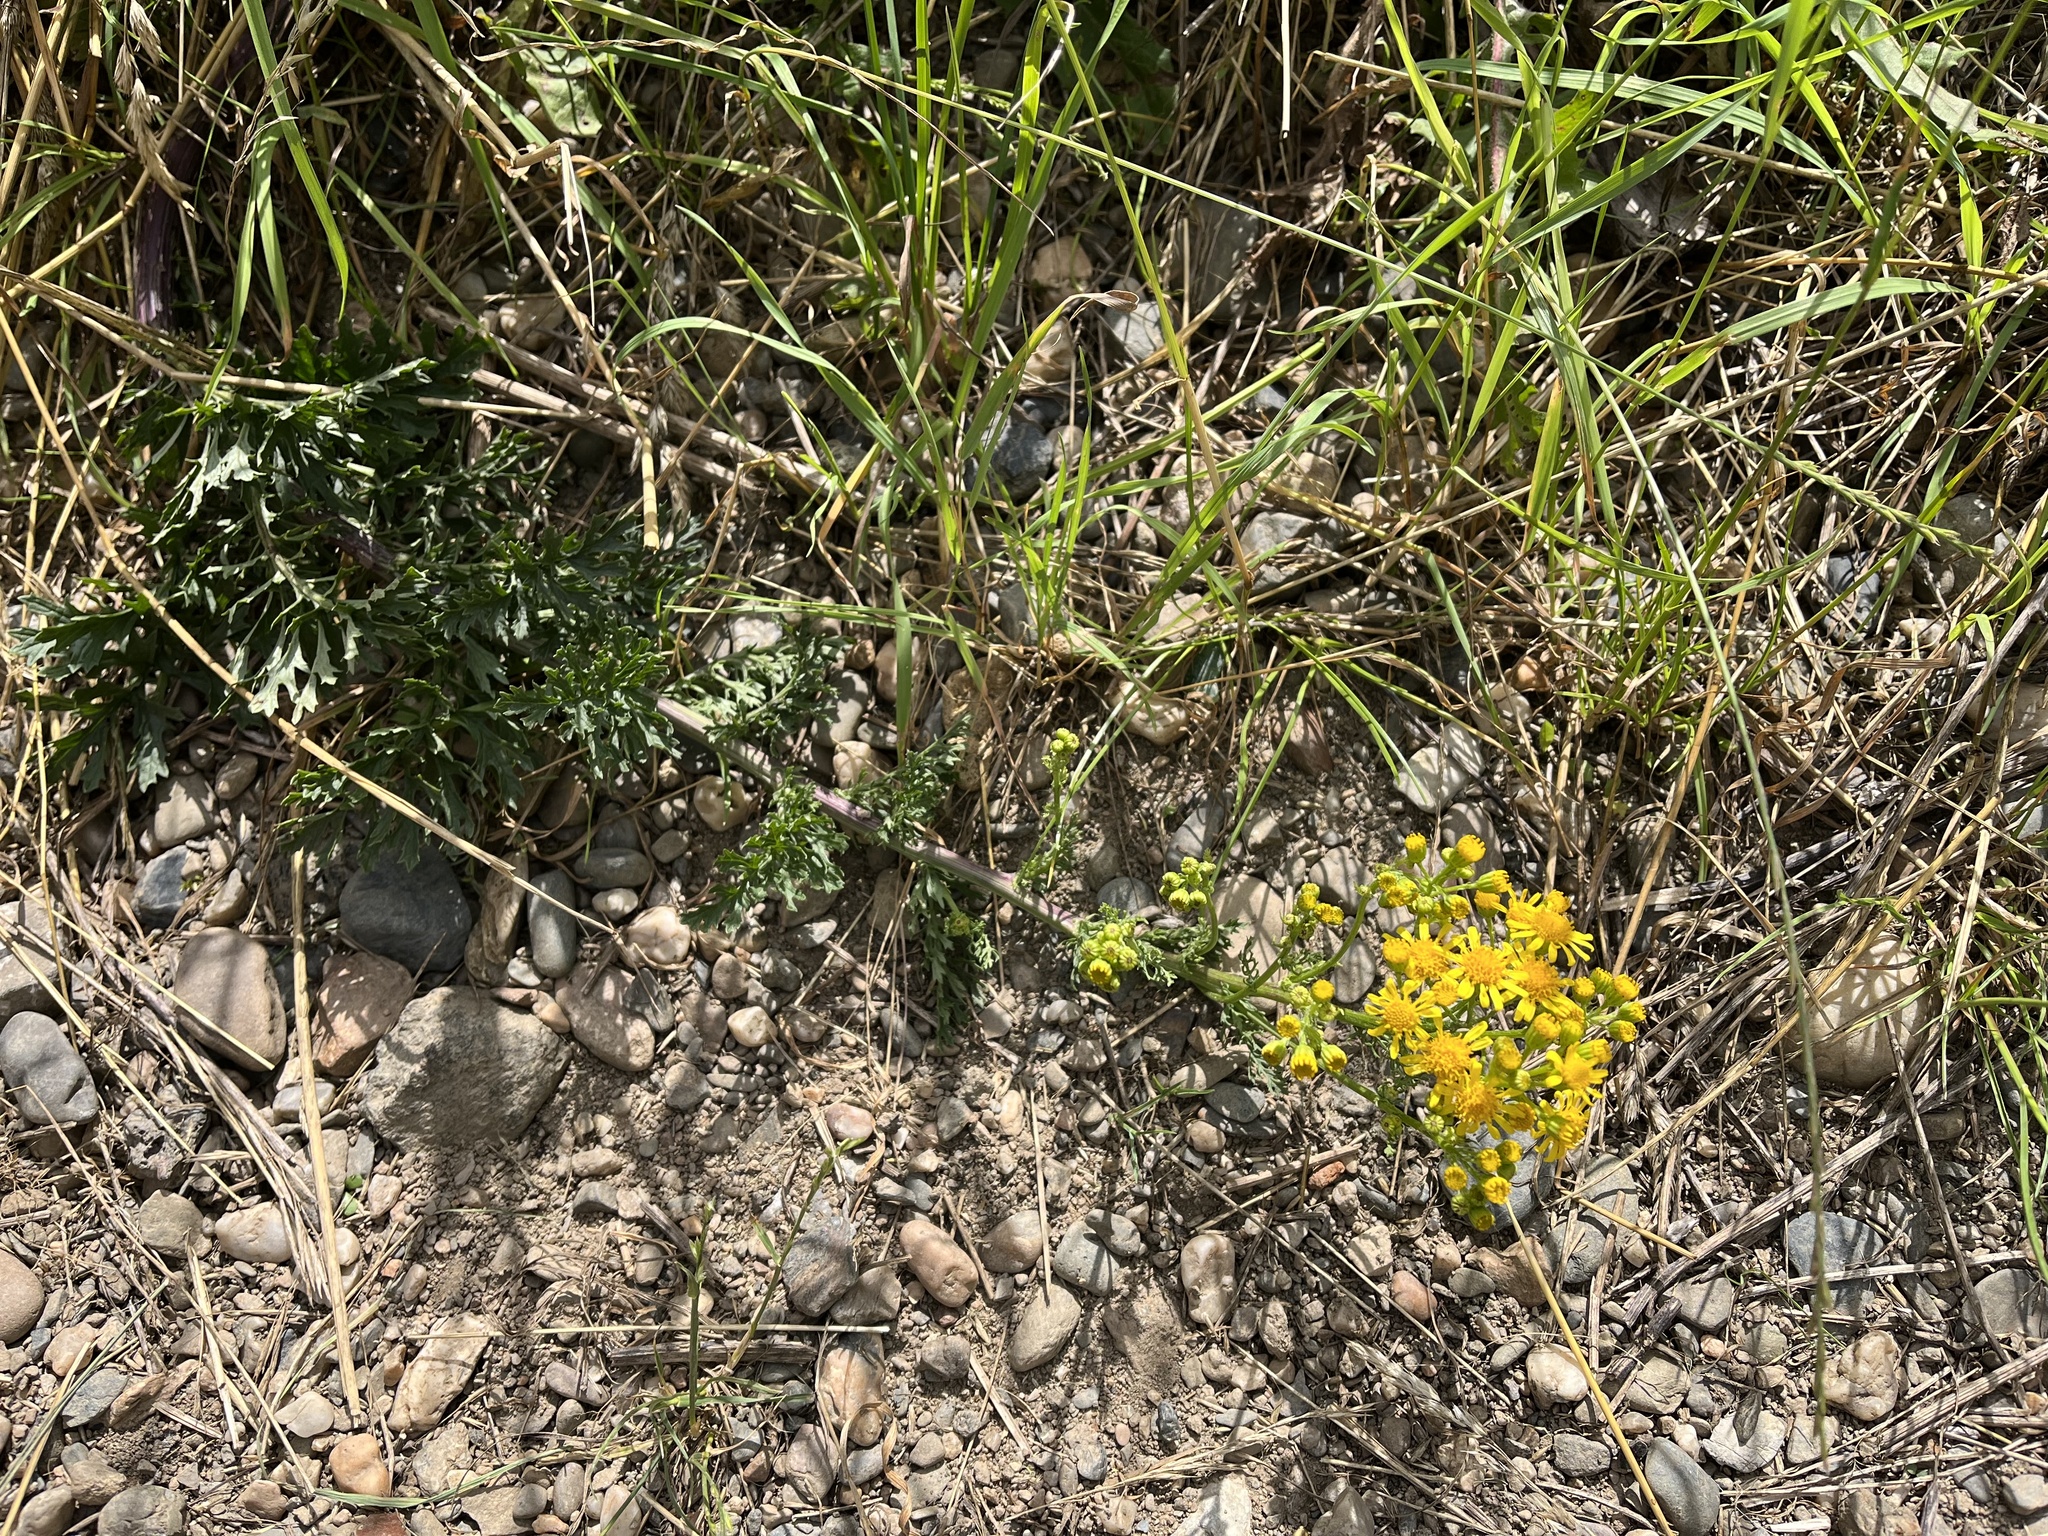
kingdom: Plantae
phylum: Tracheophyta
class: Magnoliopsida
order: Asterales
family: Asteraceae
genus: Jacobaea
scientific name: Jacobaea vulgaris
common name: Stinking willie
